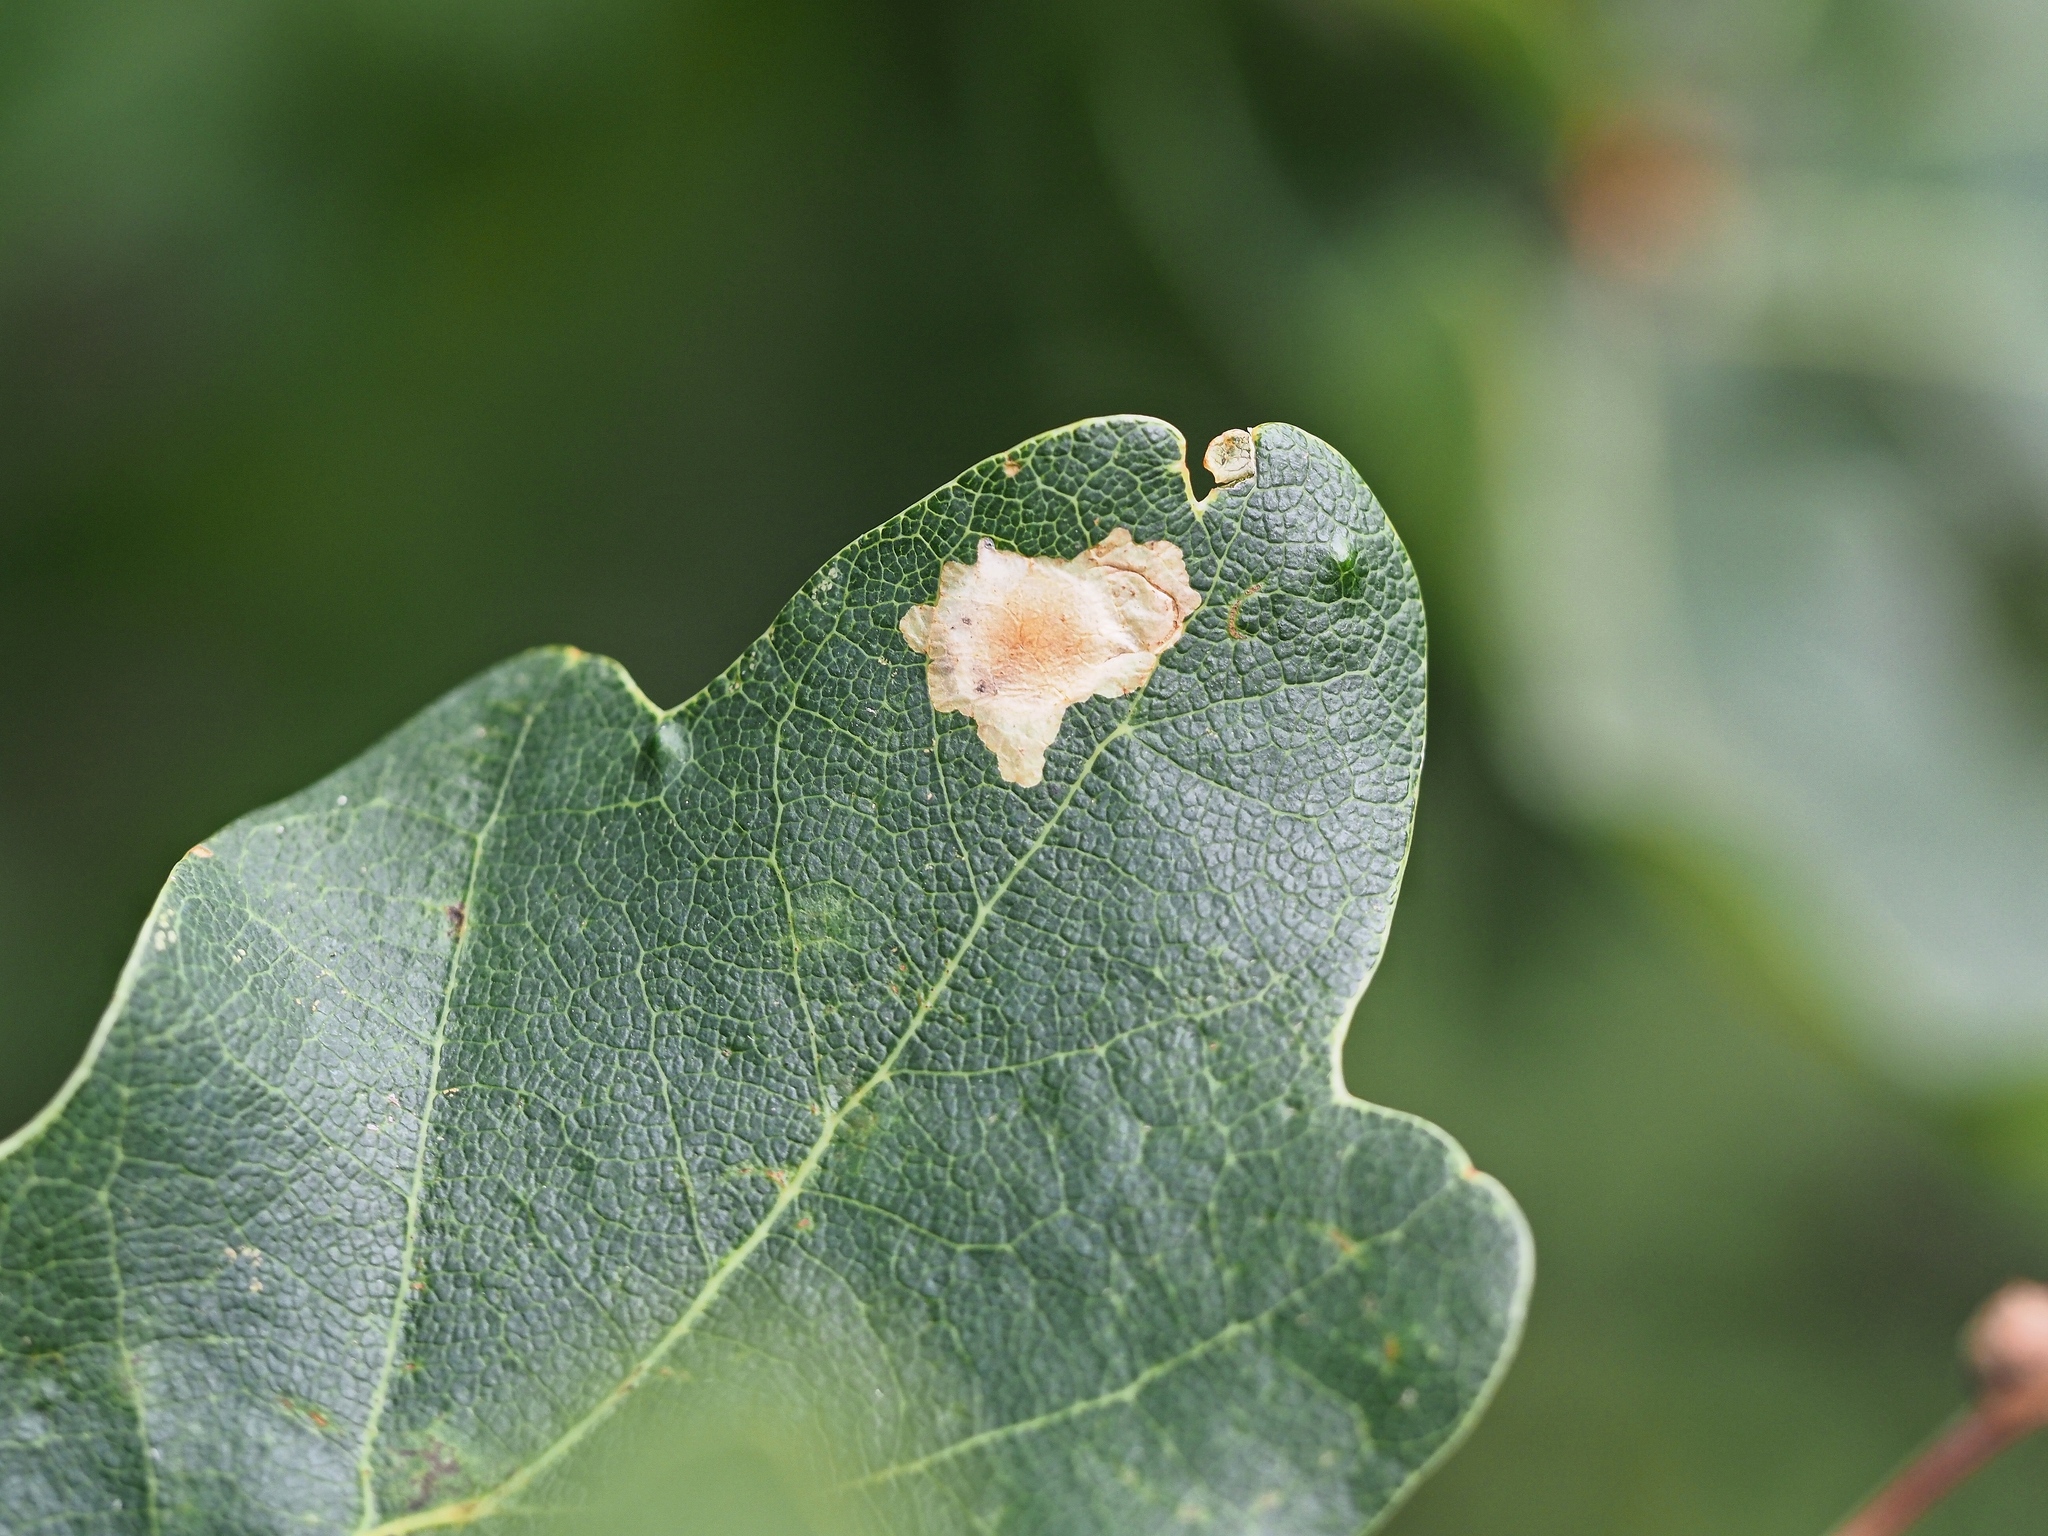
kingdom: Animalia
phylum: Arthropoda
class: Insecta
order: Lepidoptera
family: Tischeriidae
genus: Tischeria
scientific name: Tischeria ekebladella
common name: Oak carl
